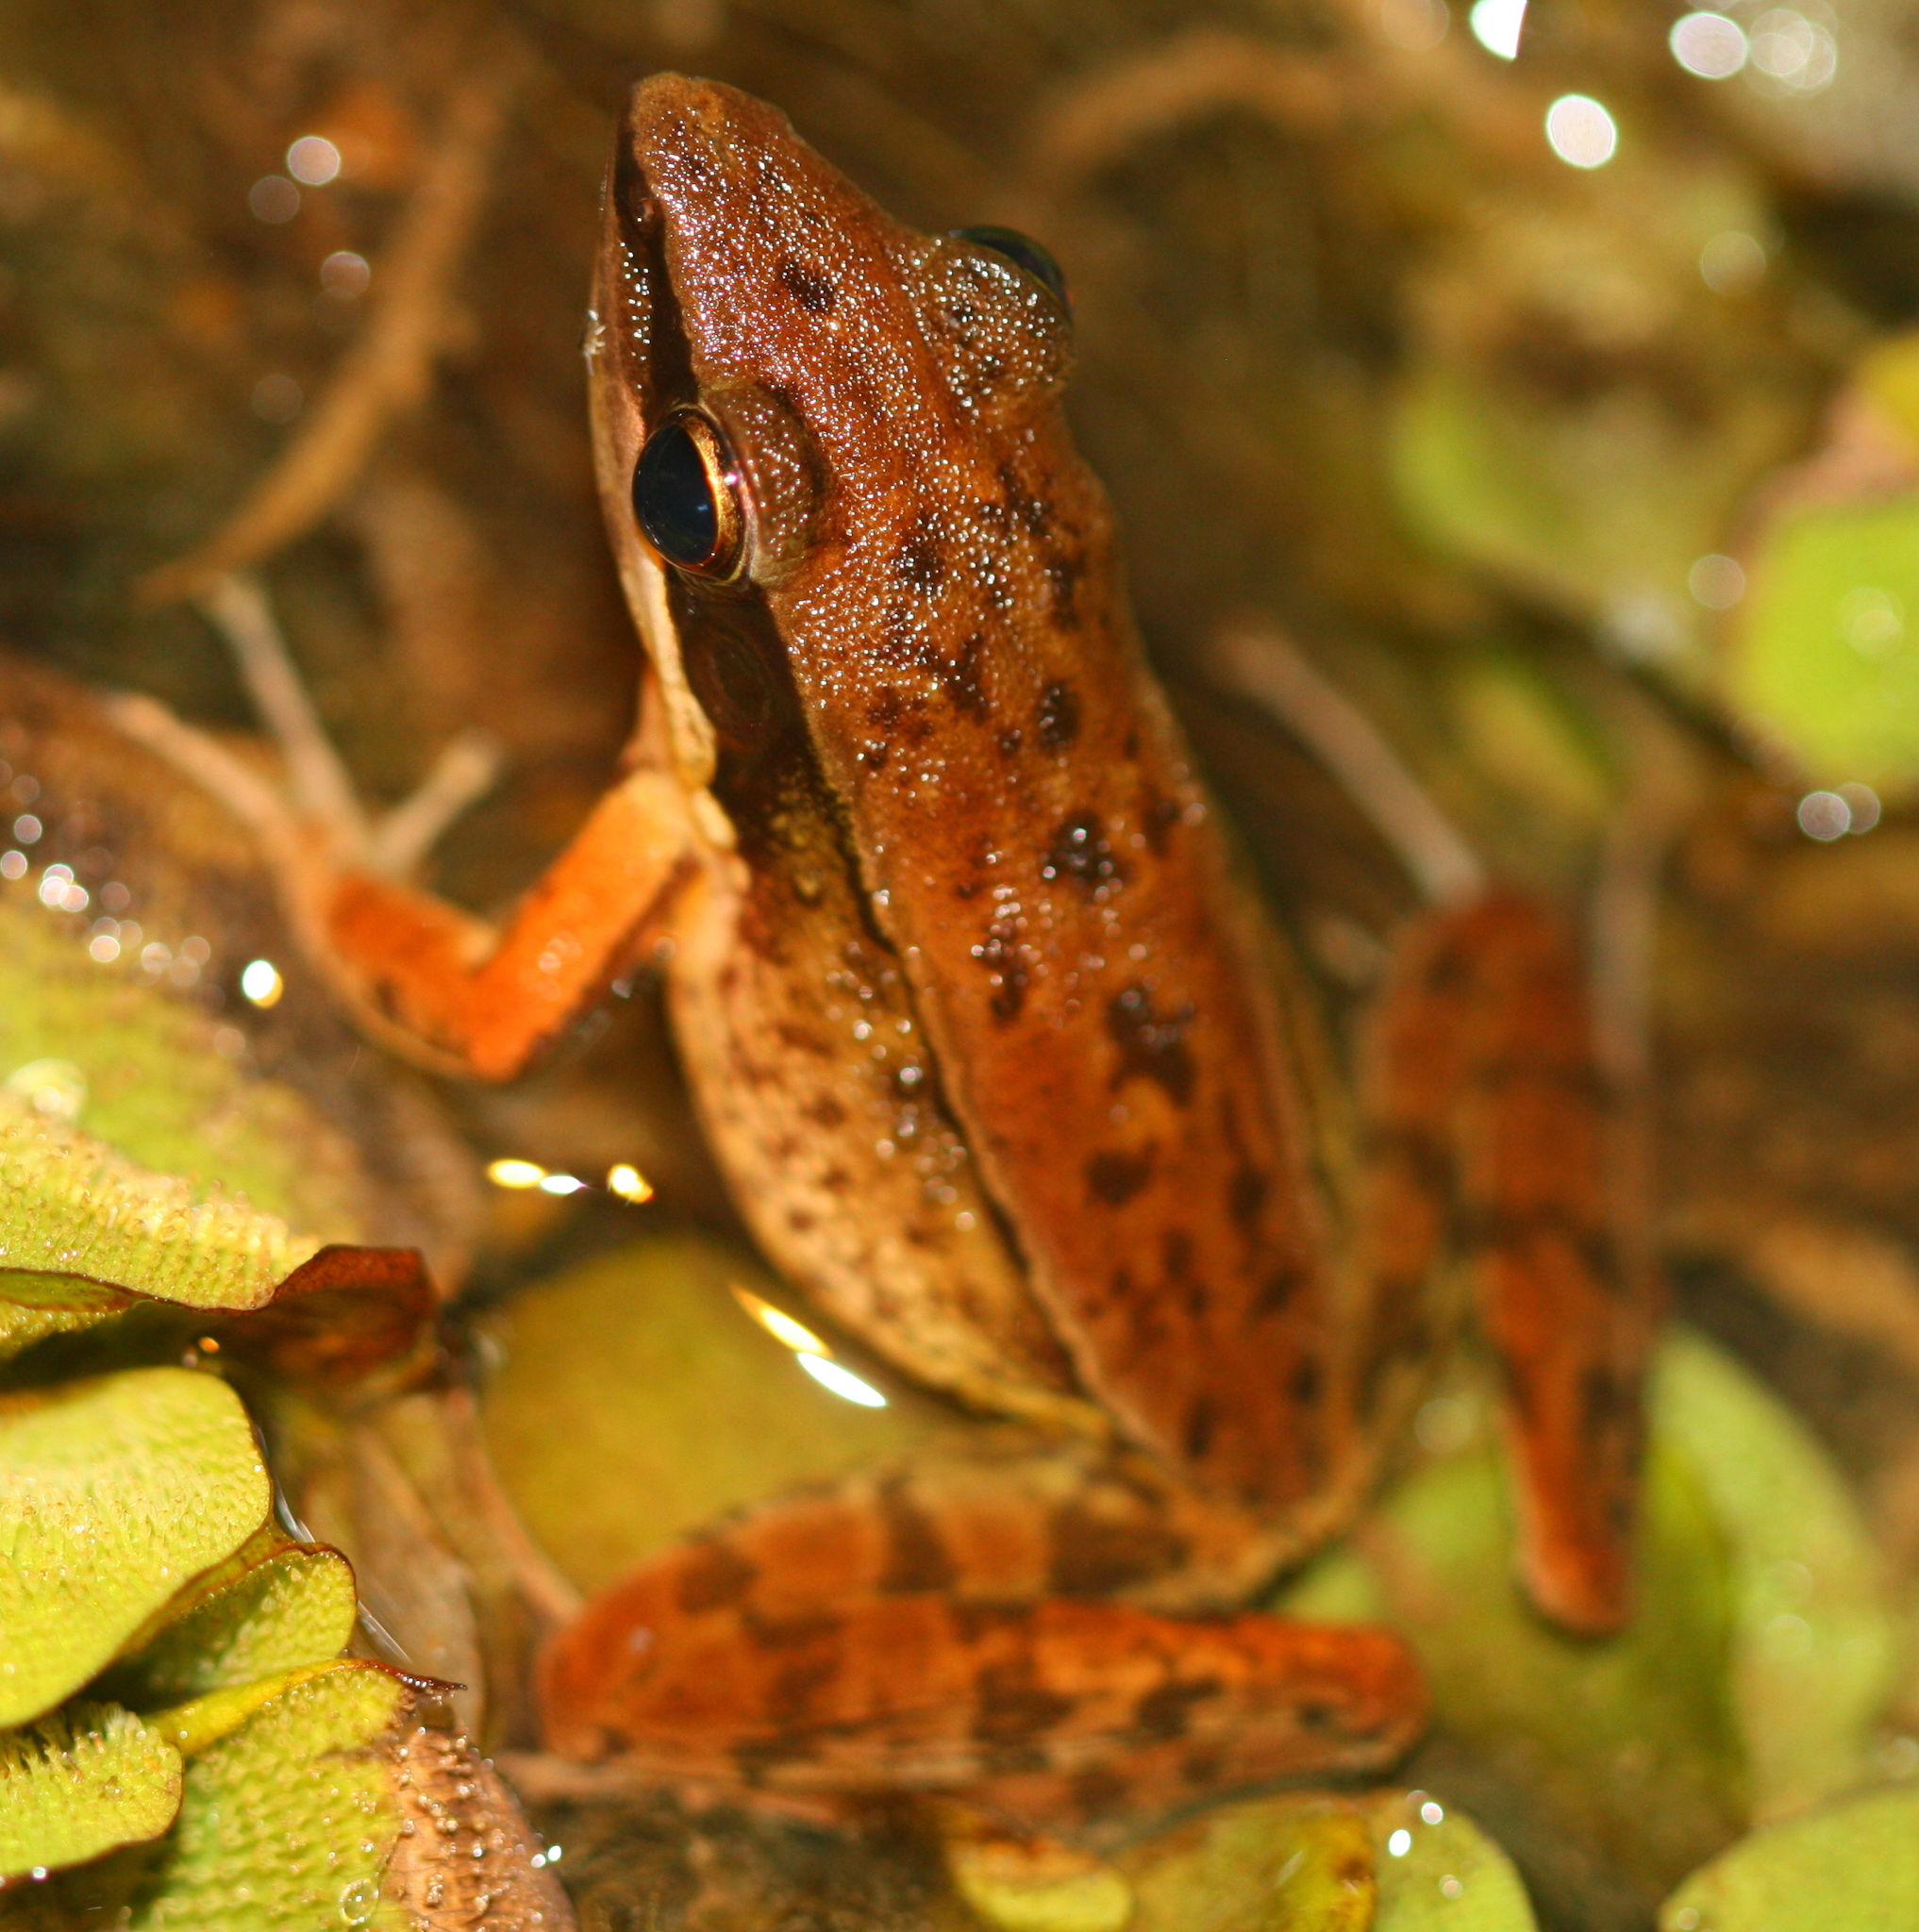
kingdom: Animalia
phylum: Chordata
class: Amphibia
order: Anura
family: Ranidae
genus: Bijurana
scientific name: Bijurana nicobariensis
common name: Cricket frog
